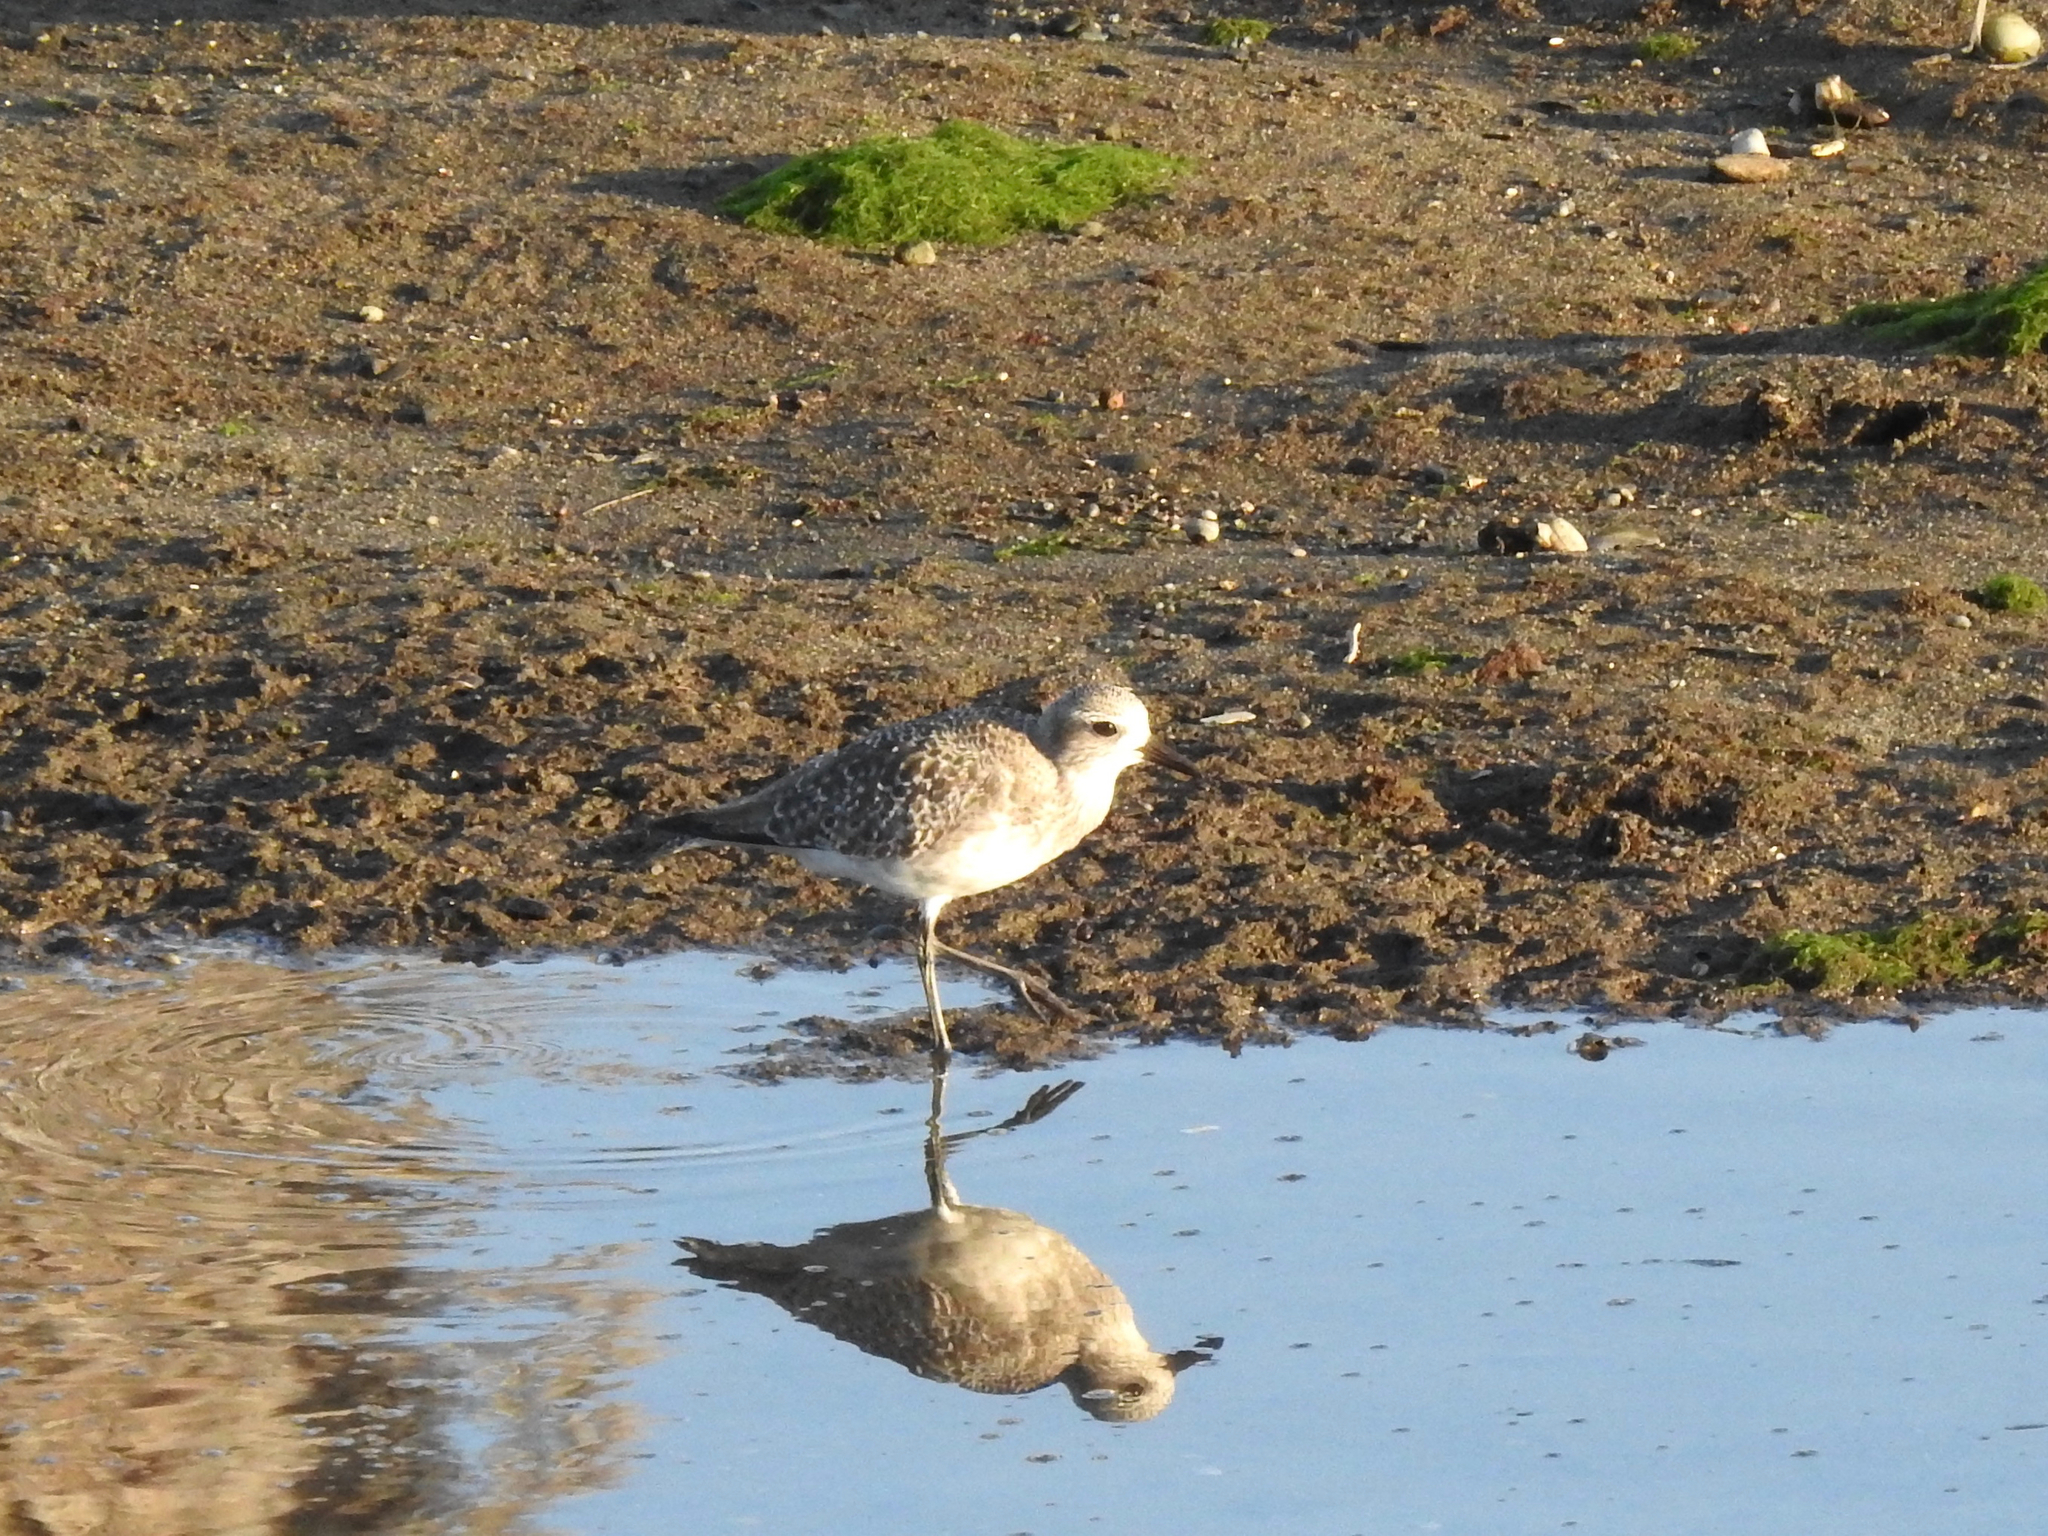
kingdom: Animalia
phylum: Chordata
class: Aves
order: Charadriiformes
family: Charadriidae
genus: Pluvialis
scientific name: Pluvialis squatarola
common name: Grey plover
